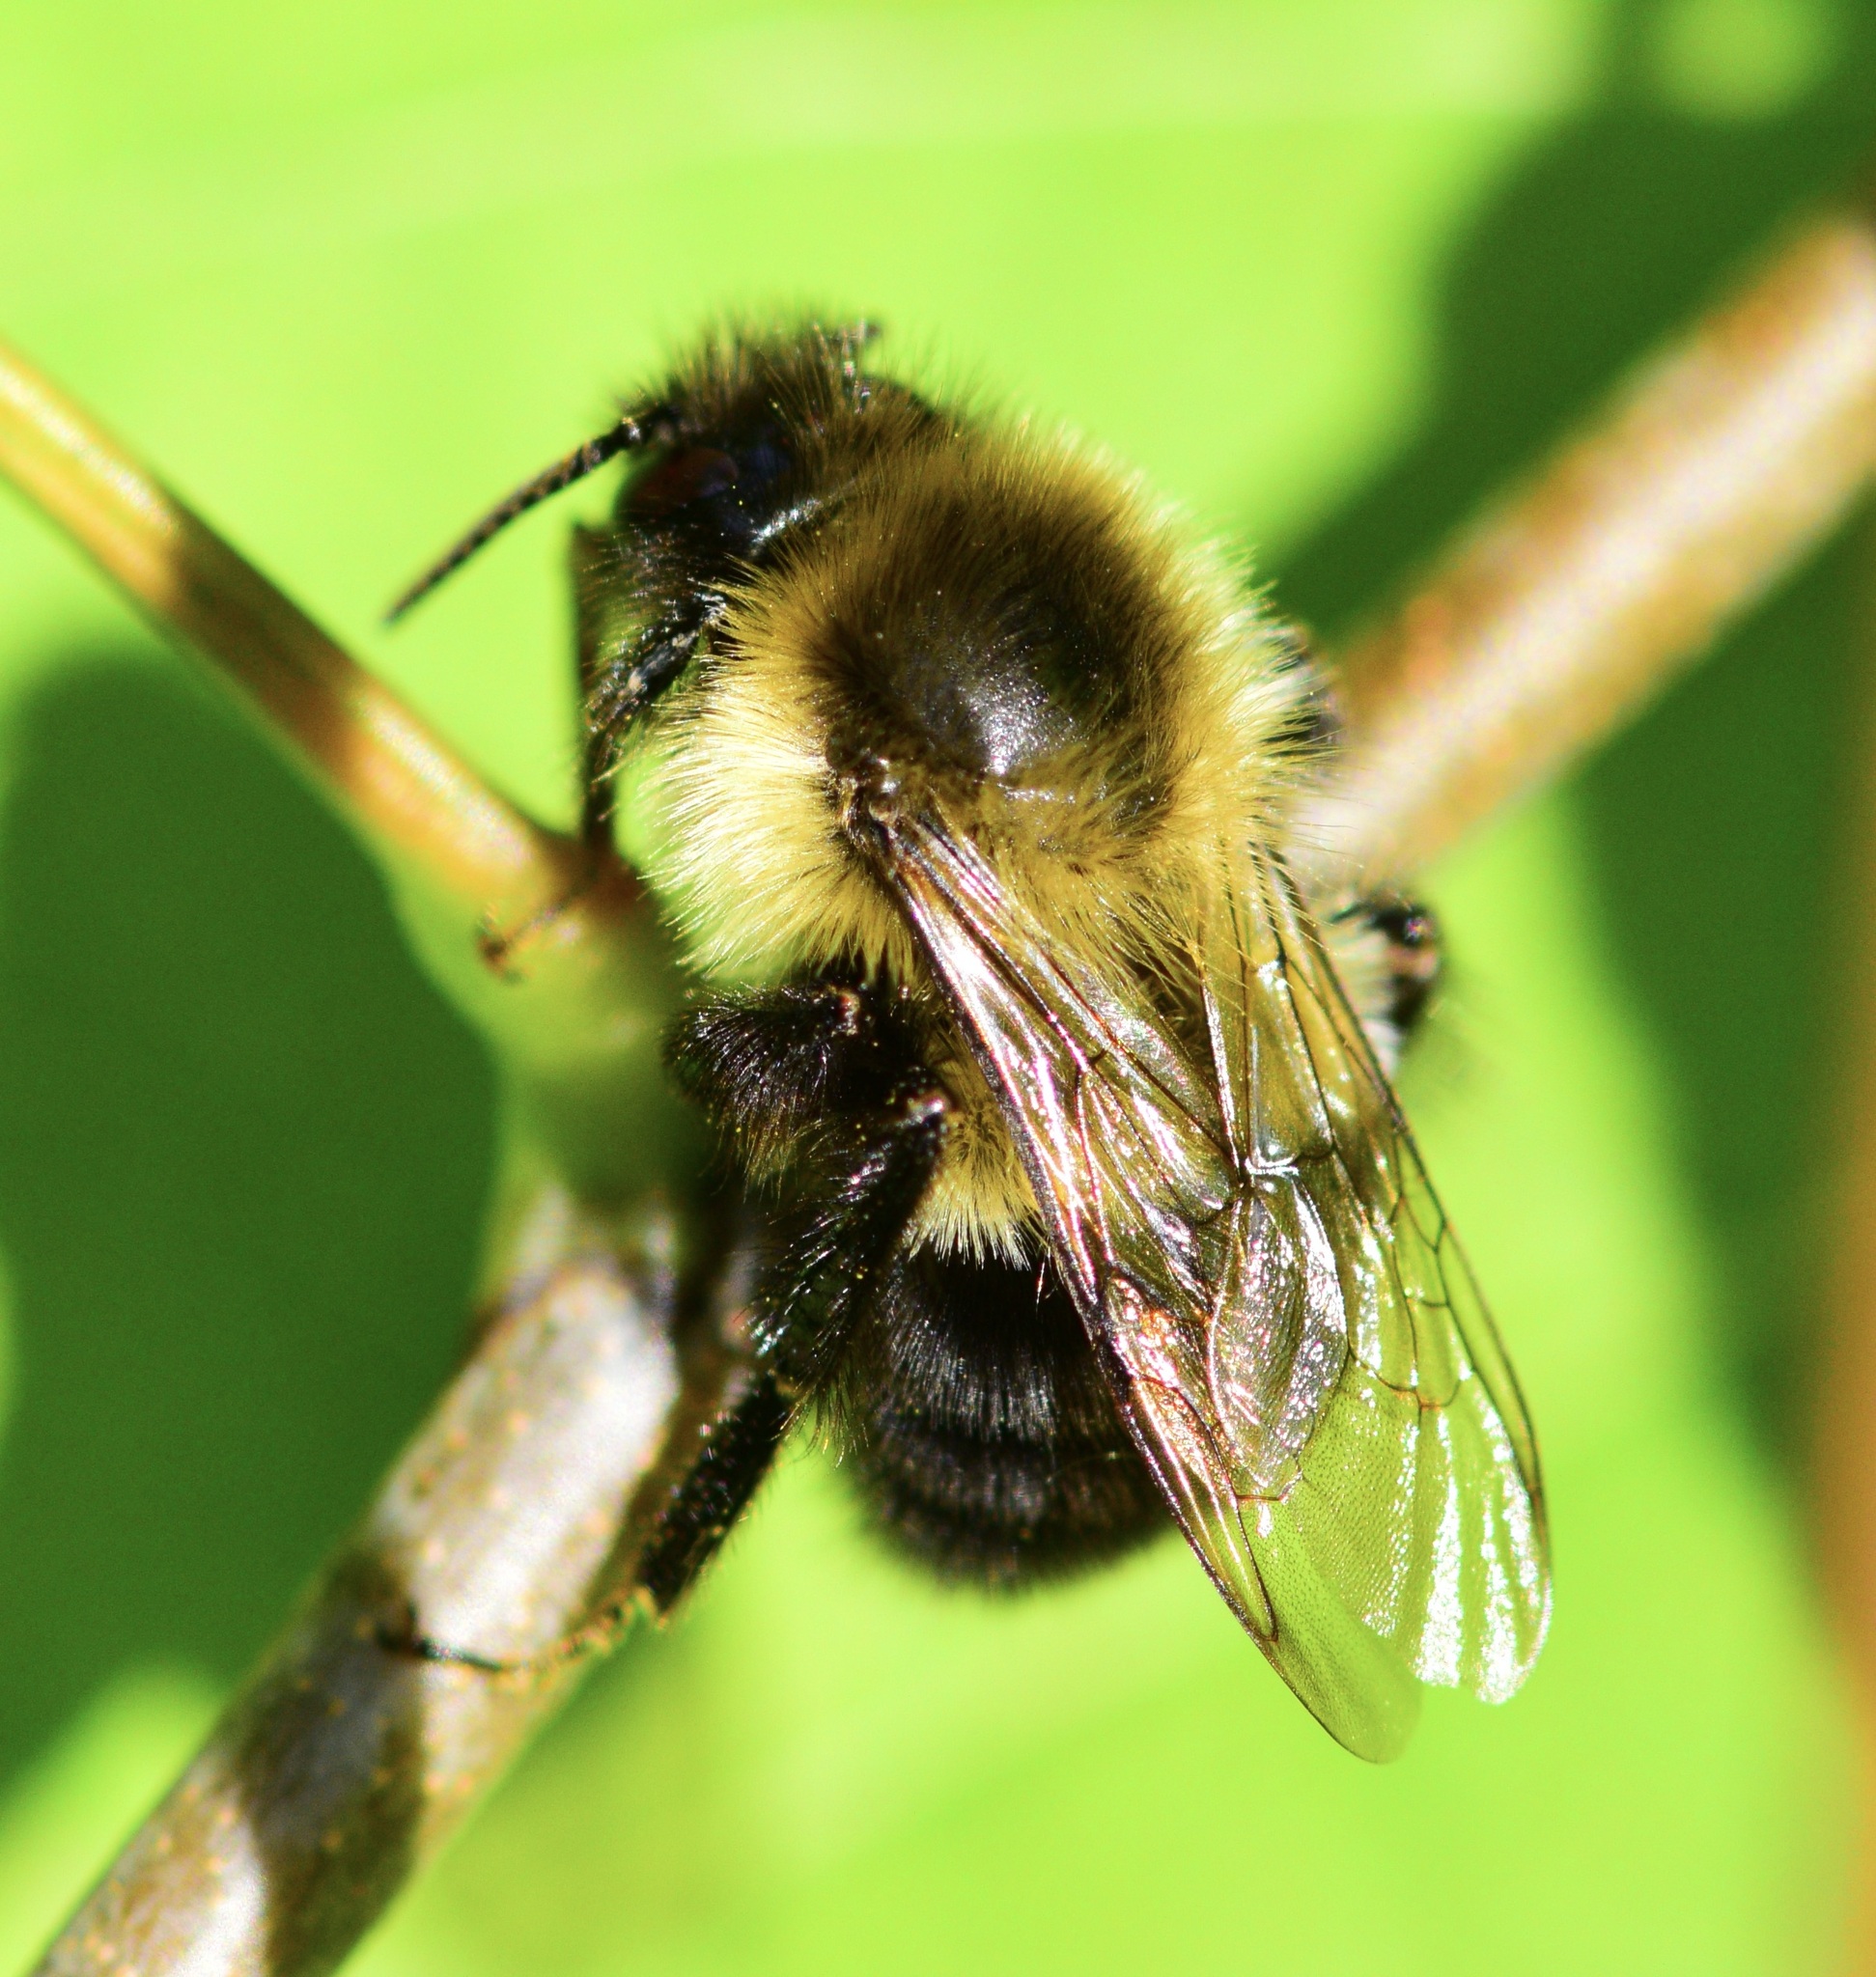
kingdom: Animalia
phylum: Arthropoda
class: Insecta
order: Hymenoptera
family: Apidae
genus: Bombus
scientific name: Bombus impatiens
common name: Common eastern bumble bee
